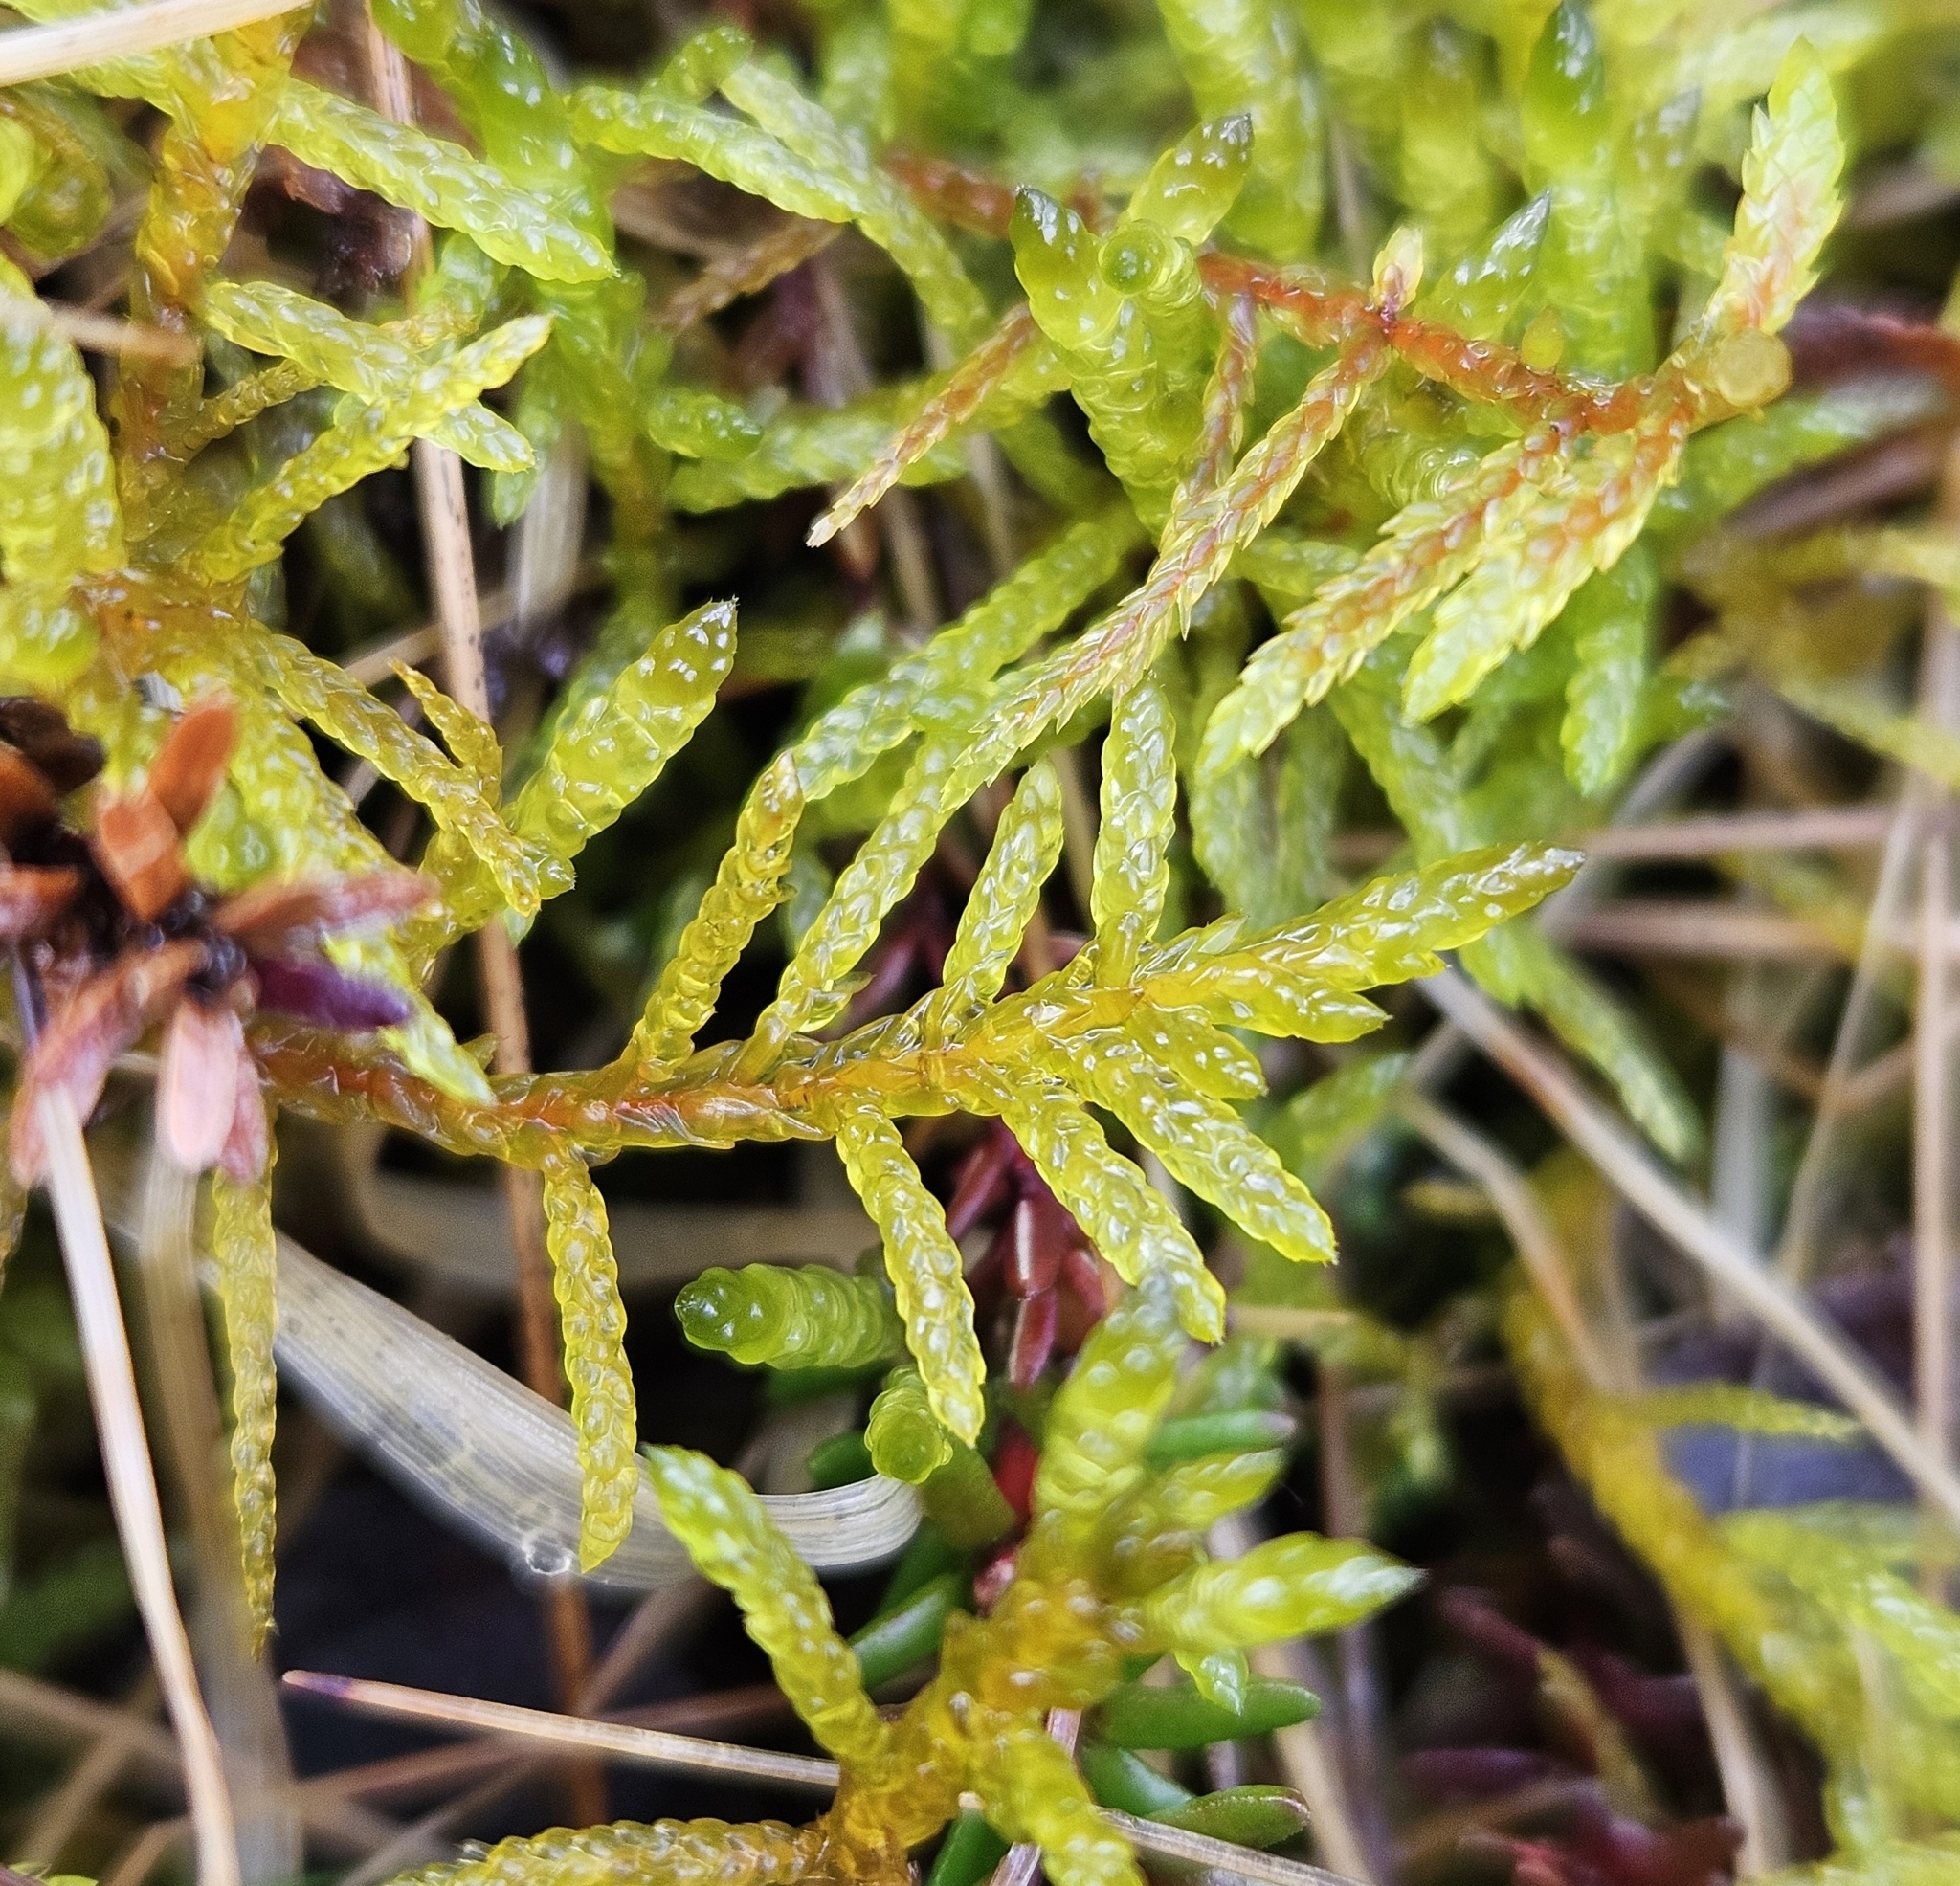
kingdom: Plantae
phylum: Bryophyta
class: Bryopsida
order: Hypnales
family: Brachytheciaceae
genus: Pseudoscleropodium
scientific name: Pseudoscleropodium purum
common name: Neat feather-moss
